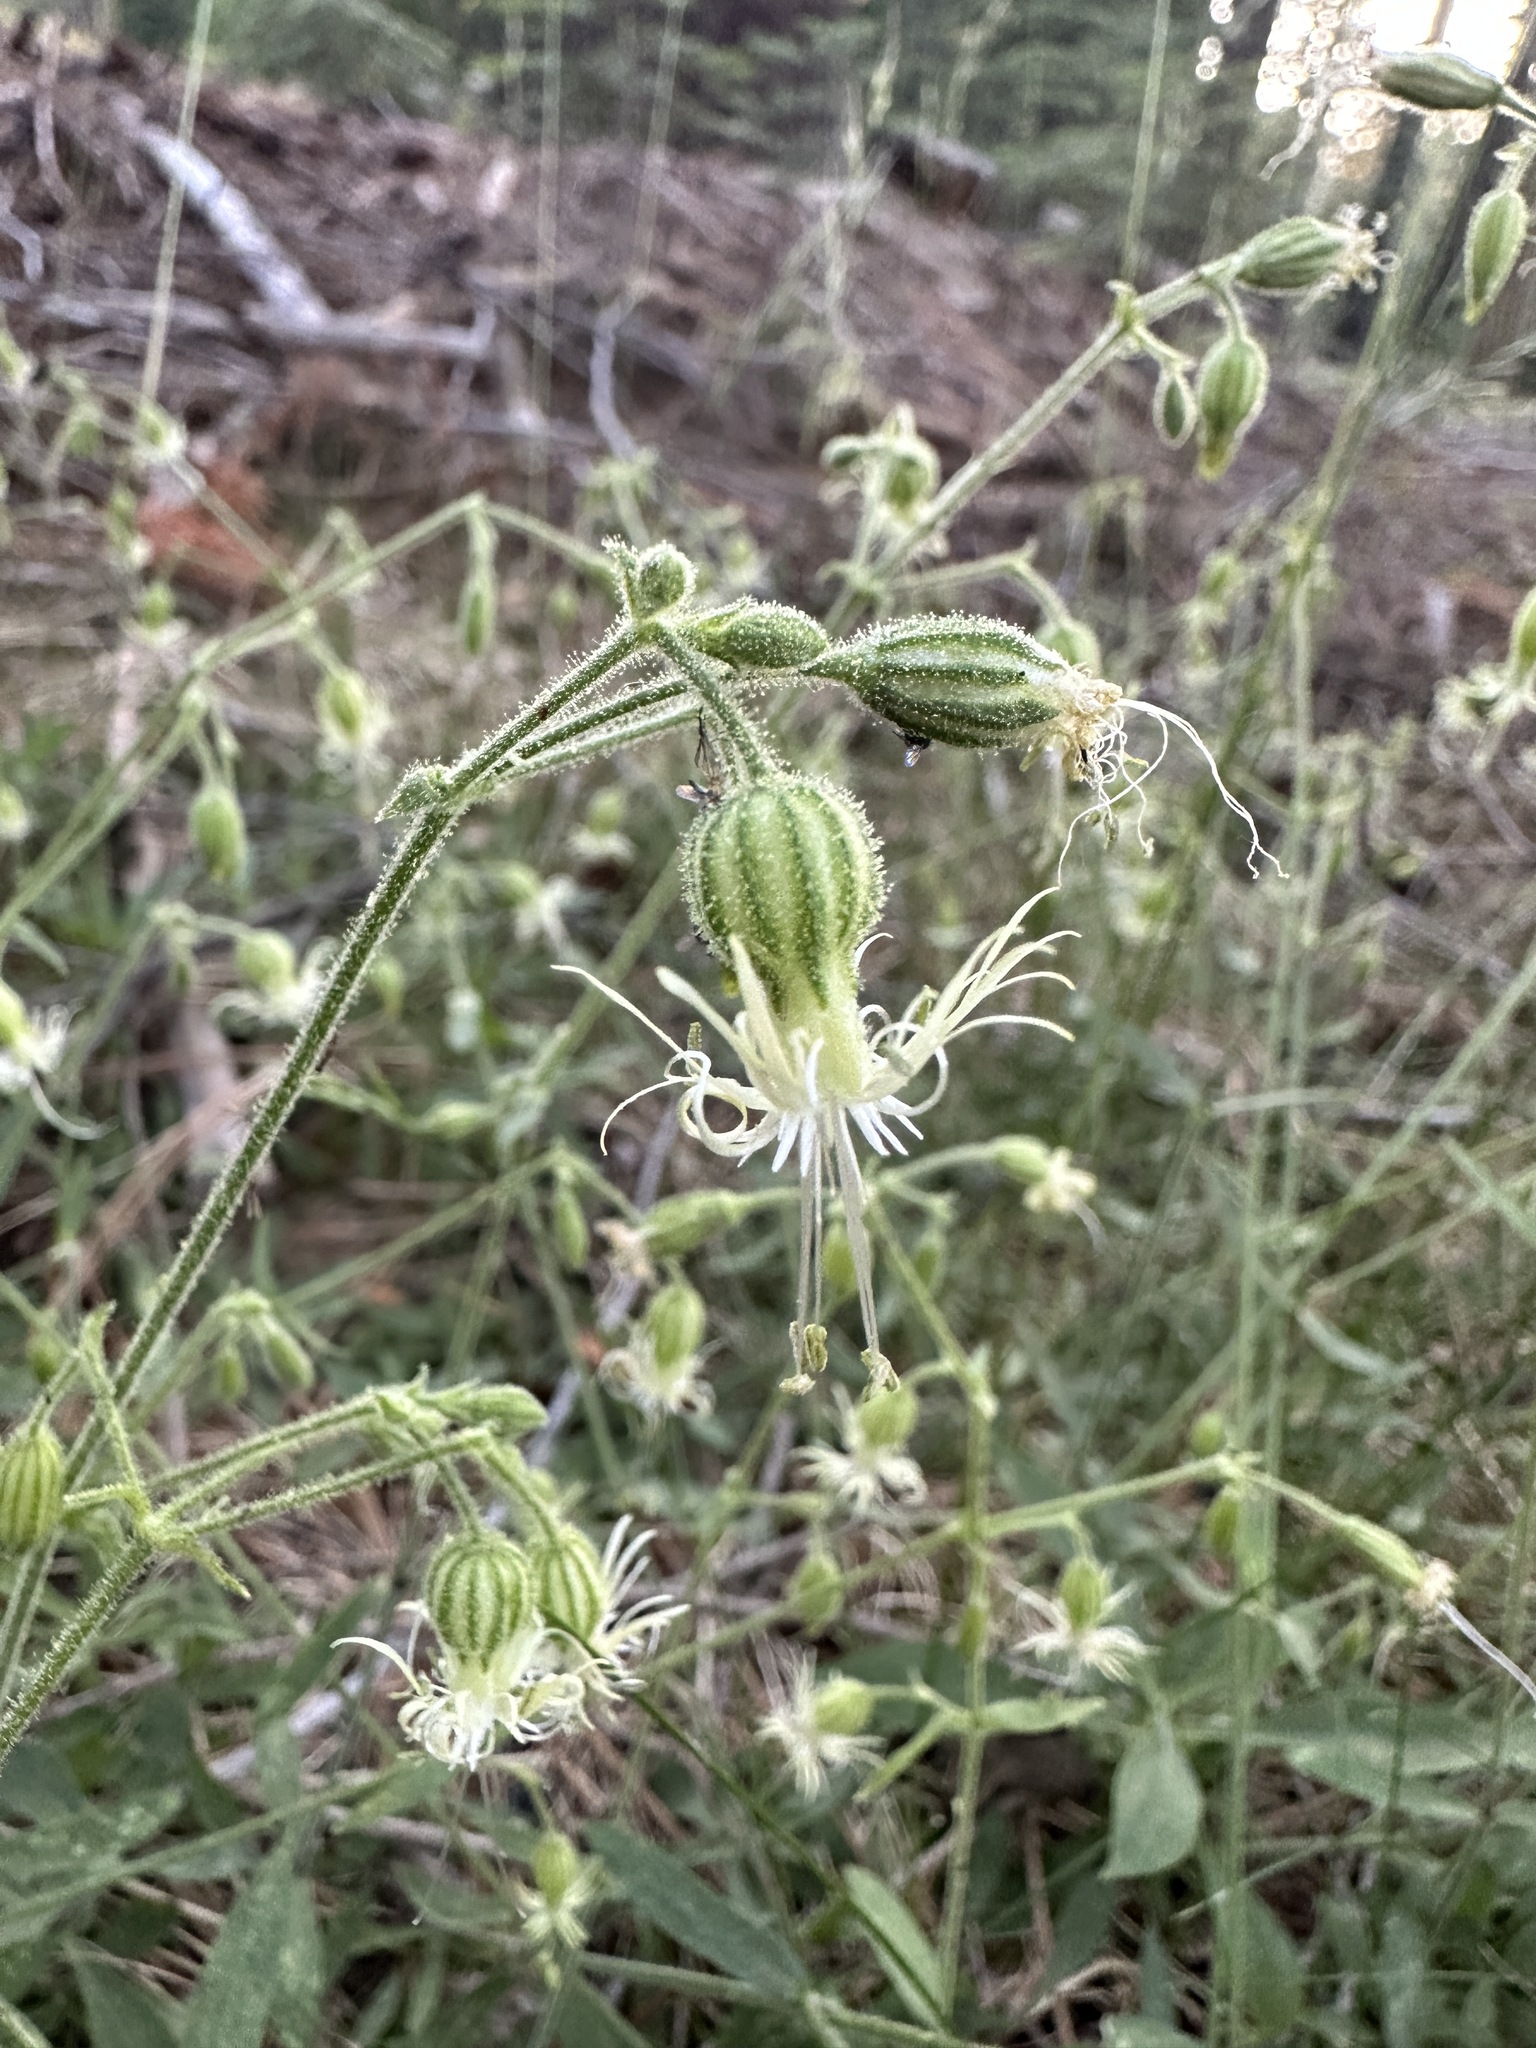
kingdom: Plantae
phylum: Tracheophyta
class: Magnoliopsida
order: Caryophyllales
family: Caryophyllaceae
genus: Silene
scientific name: Silene lemmonii
